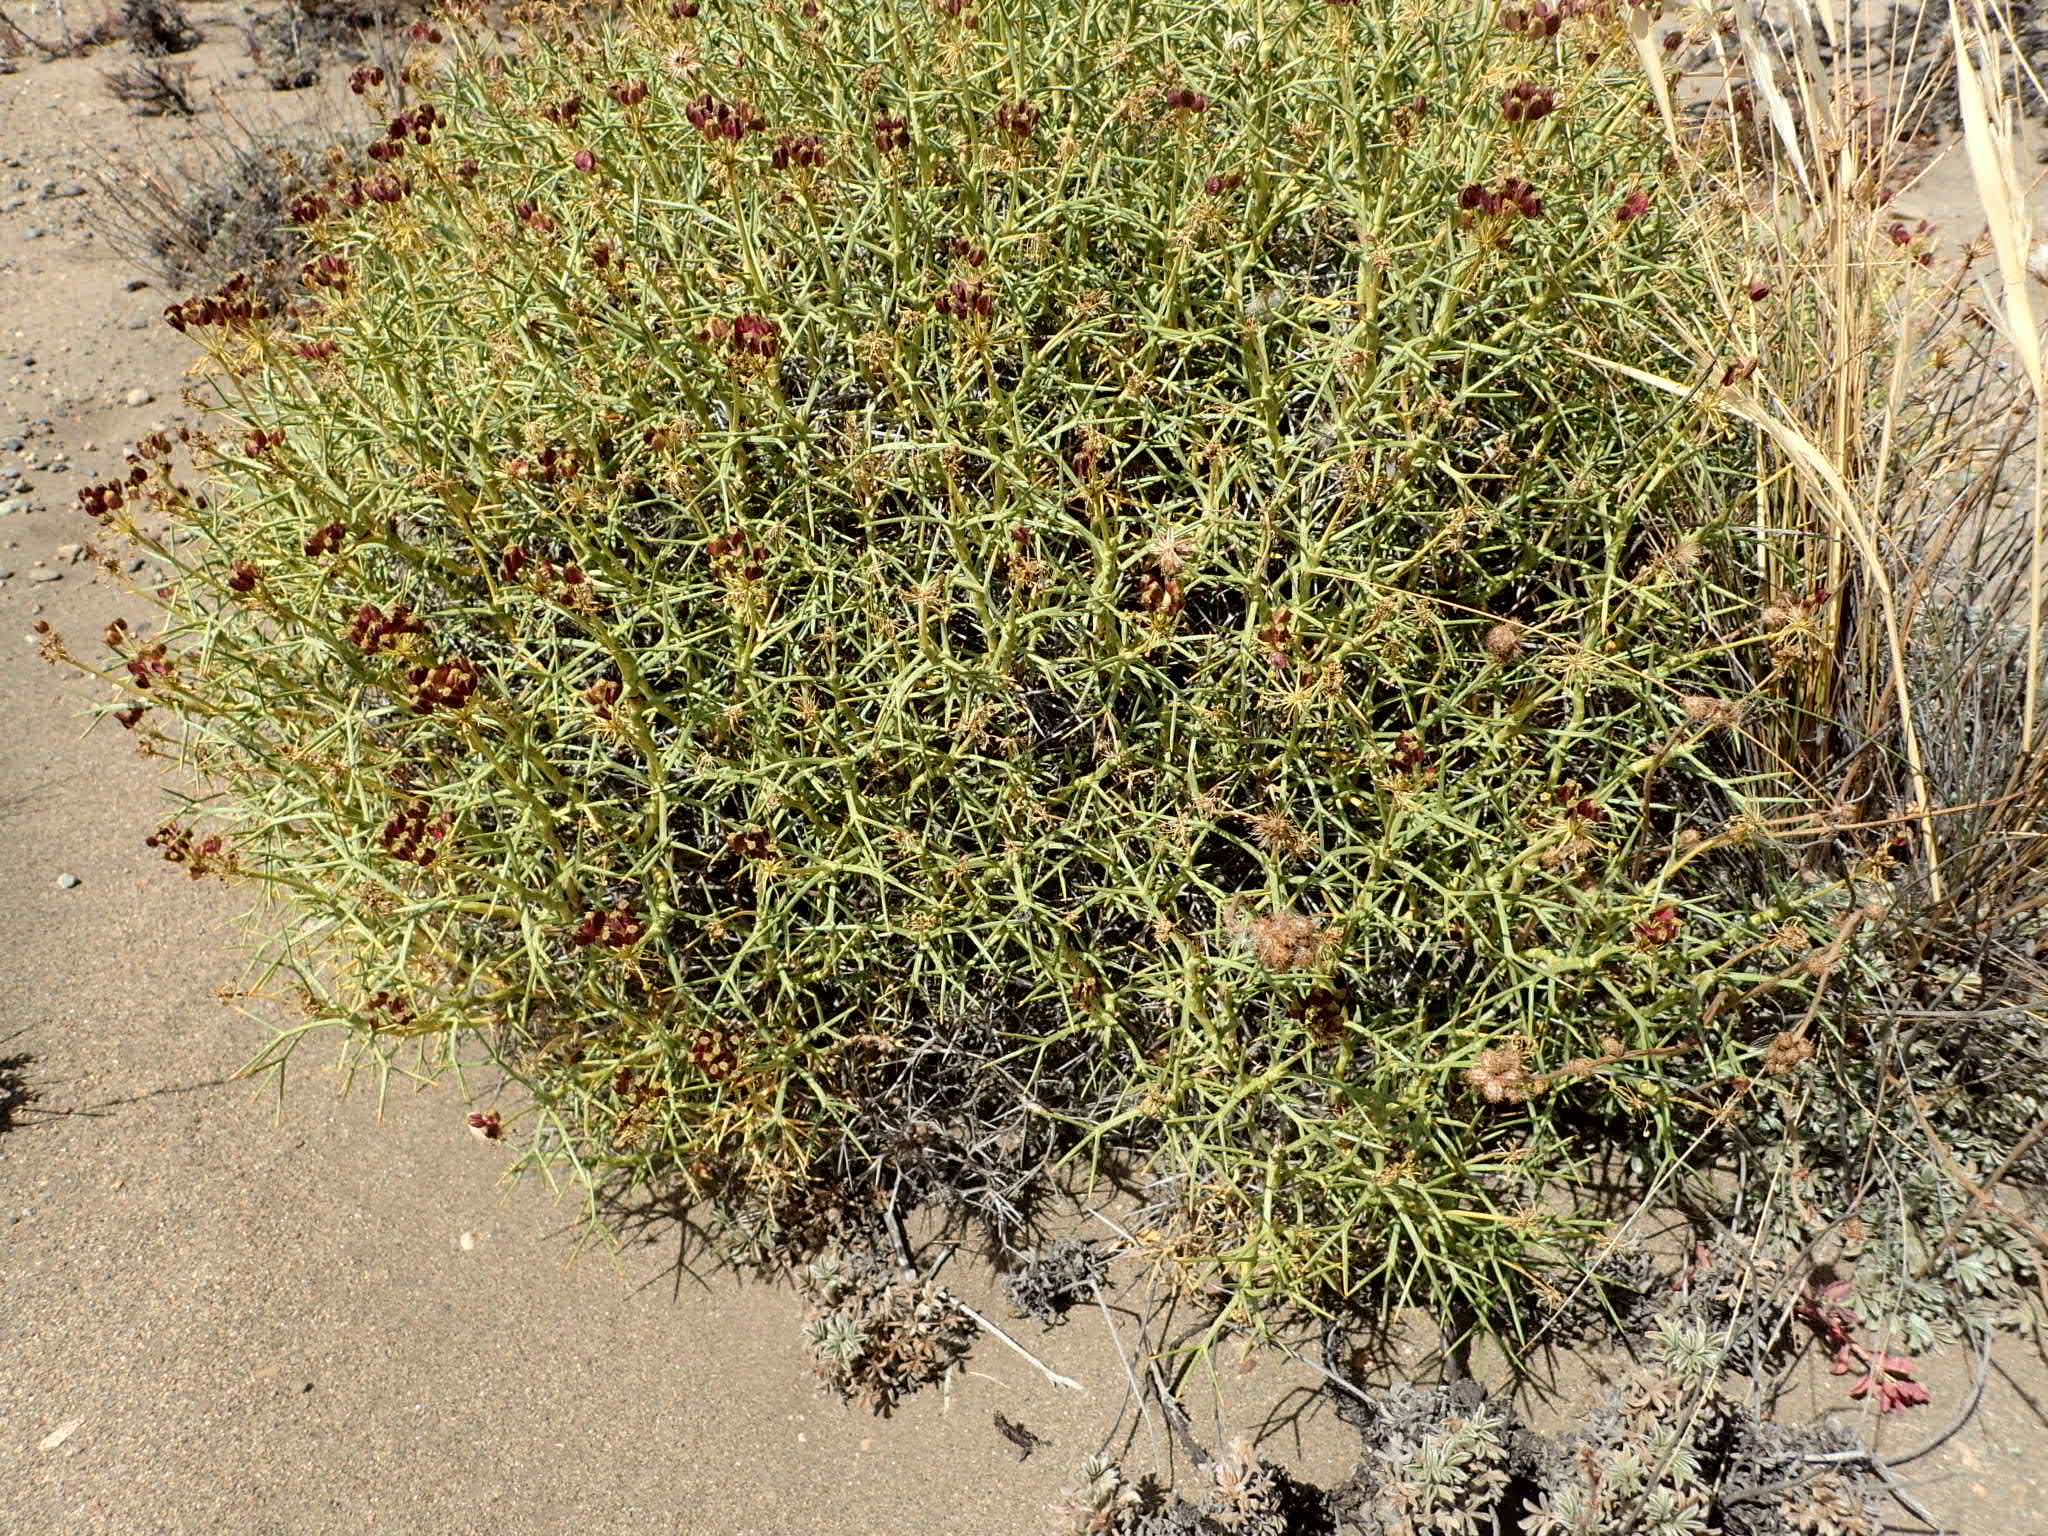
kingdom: Plantae
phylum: Tracheophyta
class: Magnoliopsida
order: Apiales
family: Apiaceae
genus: Azorella
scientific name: Azorella prolifera
